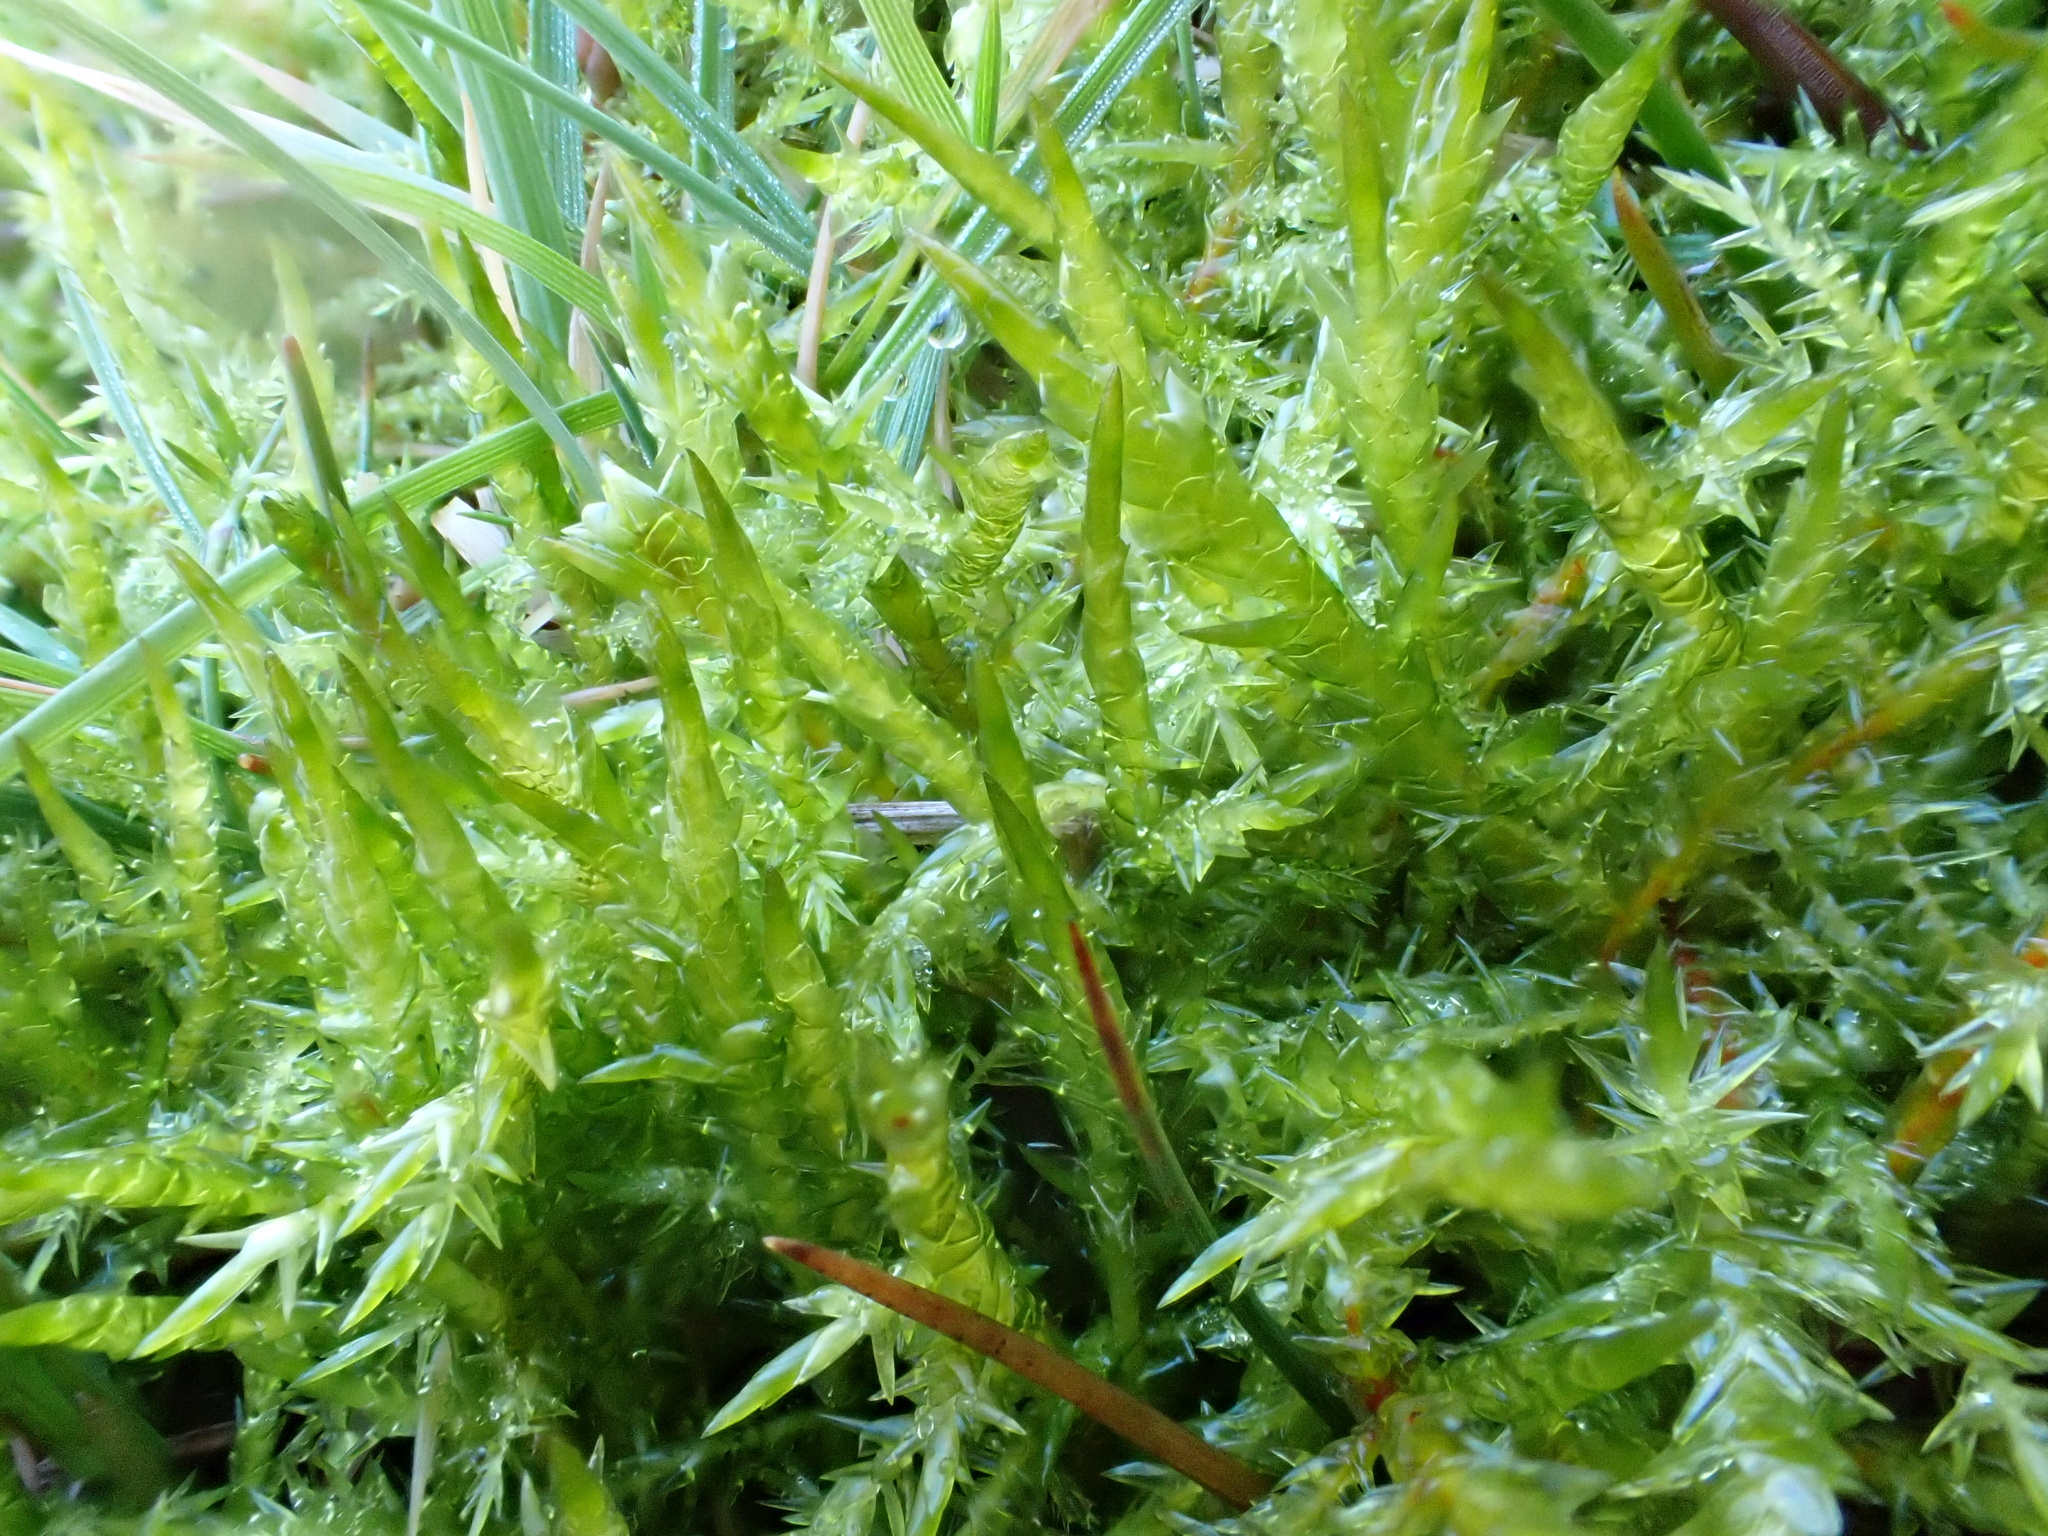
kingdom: Plantae
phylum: Bryophyta
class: Bryopsida
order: Hypnales
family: Pylaisiaceae
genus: Calliergonella
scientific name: Calliergonella cuspidata
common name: Common large wetland moss
